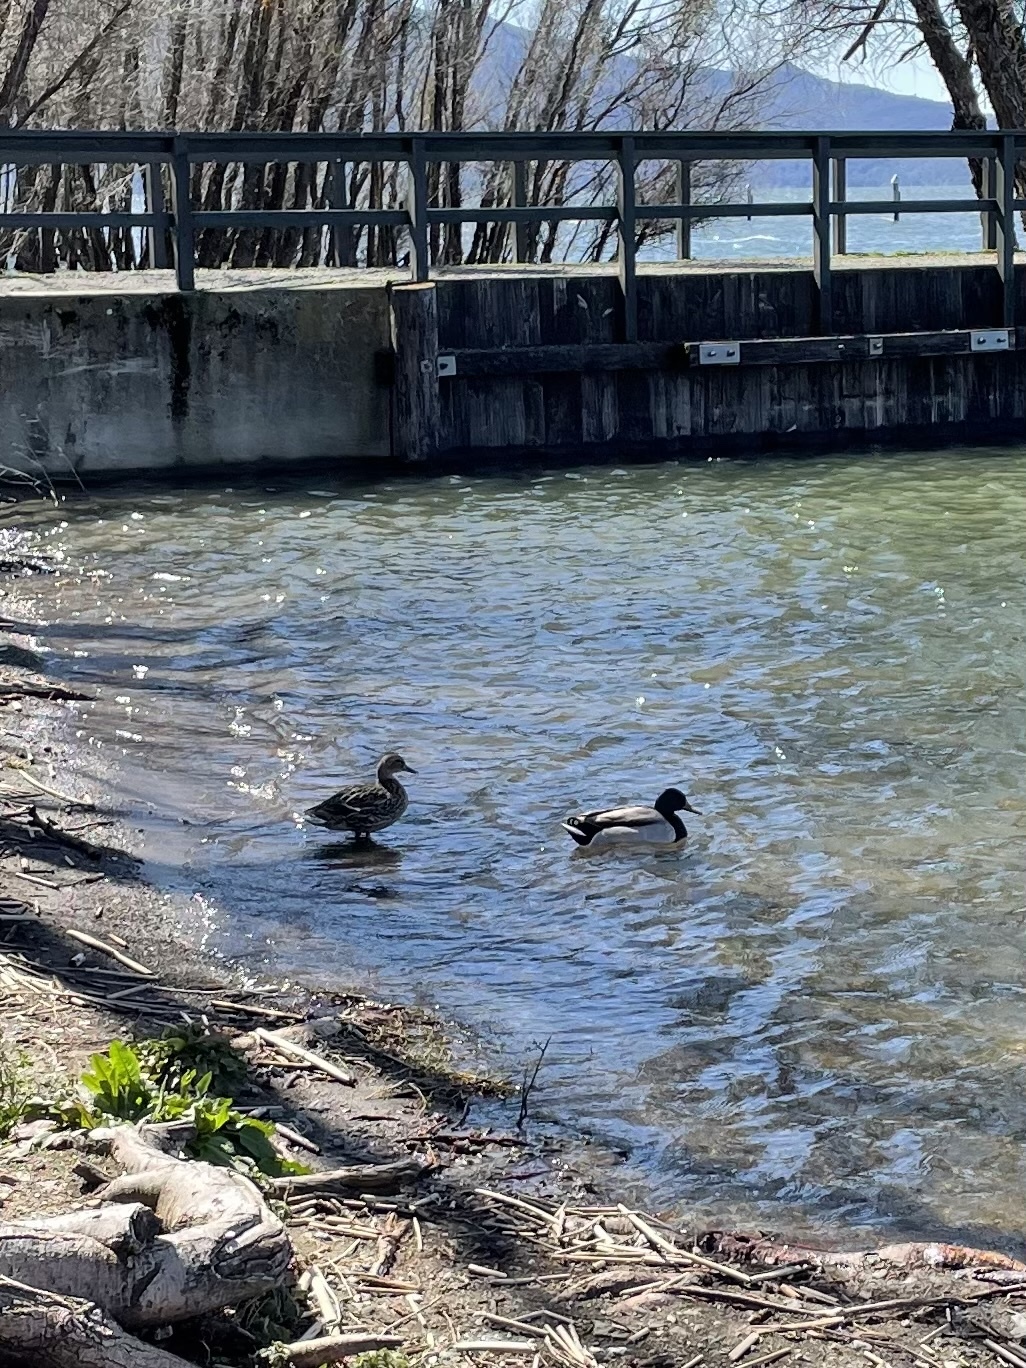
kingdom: Animalia
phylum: Chordata
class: Aves
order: Anseriformes
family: Anatidae
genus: Anas
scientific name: Anas platyrhynchos
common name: Mallard
